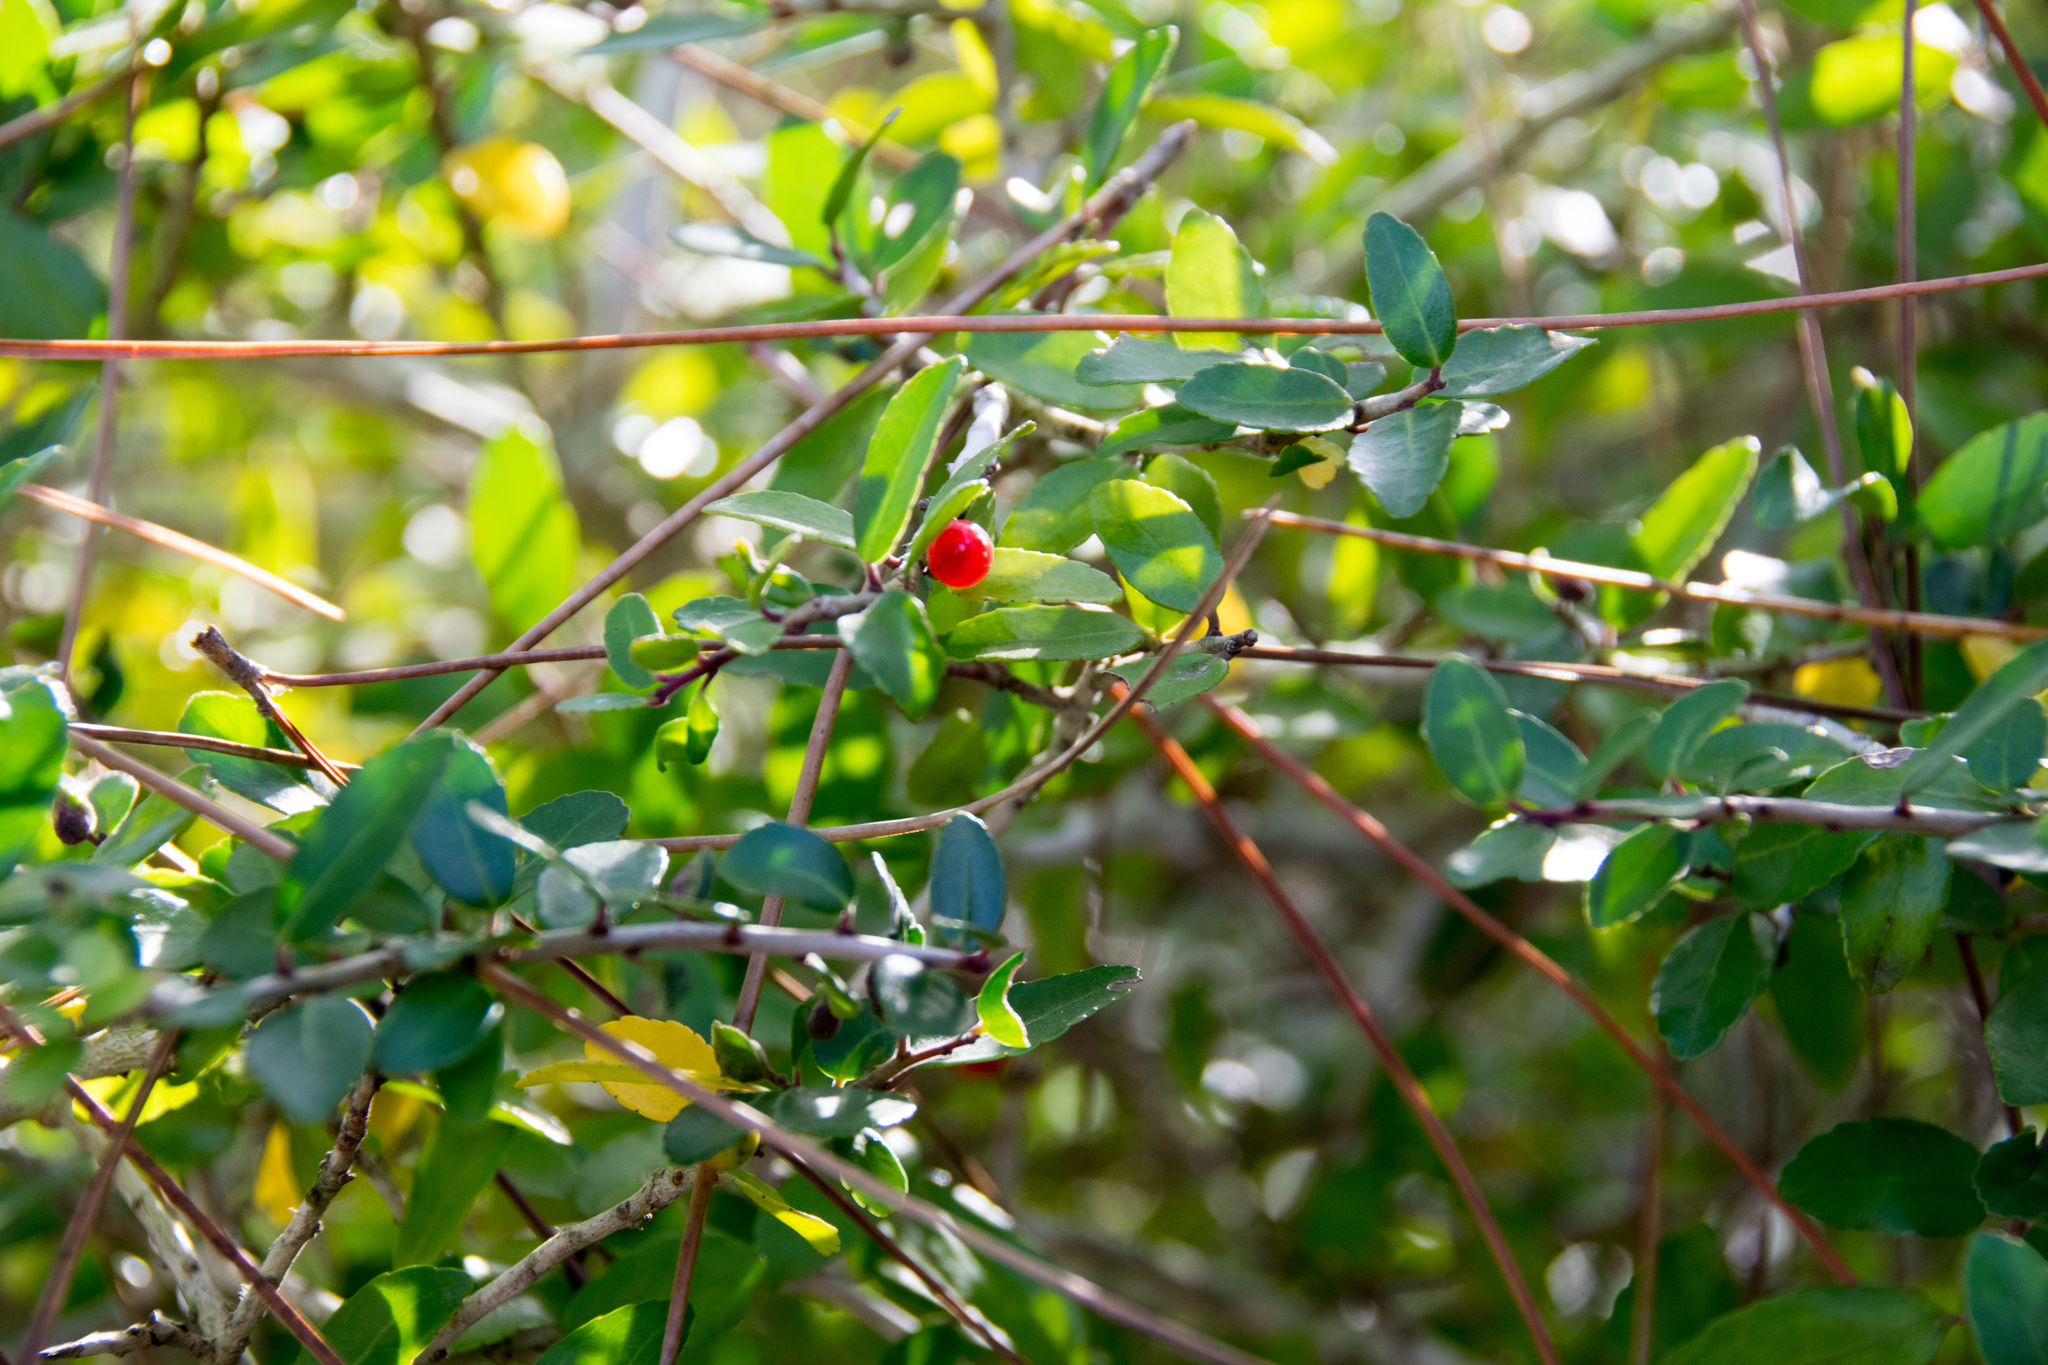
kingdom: Plantae
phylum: Tracheophyta
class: Magnoliopsida
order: Aquifoliales
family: Aquifoliaceae
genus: Ilex
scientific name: Ilex vomitoria
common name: Yaupon holly
